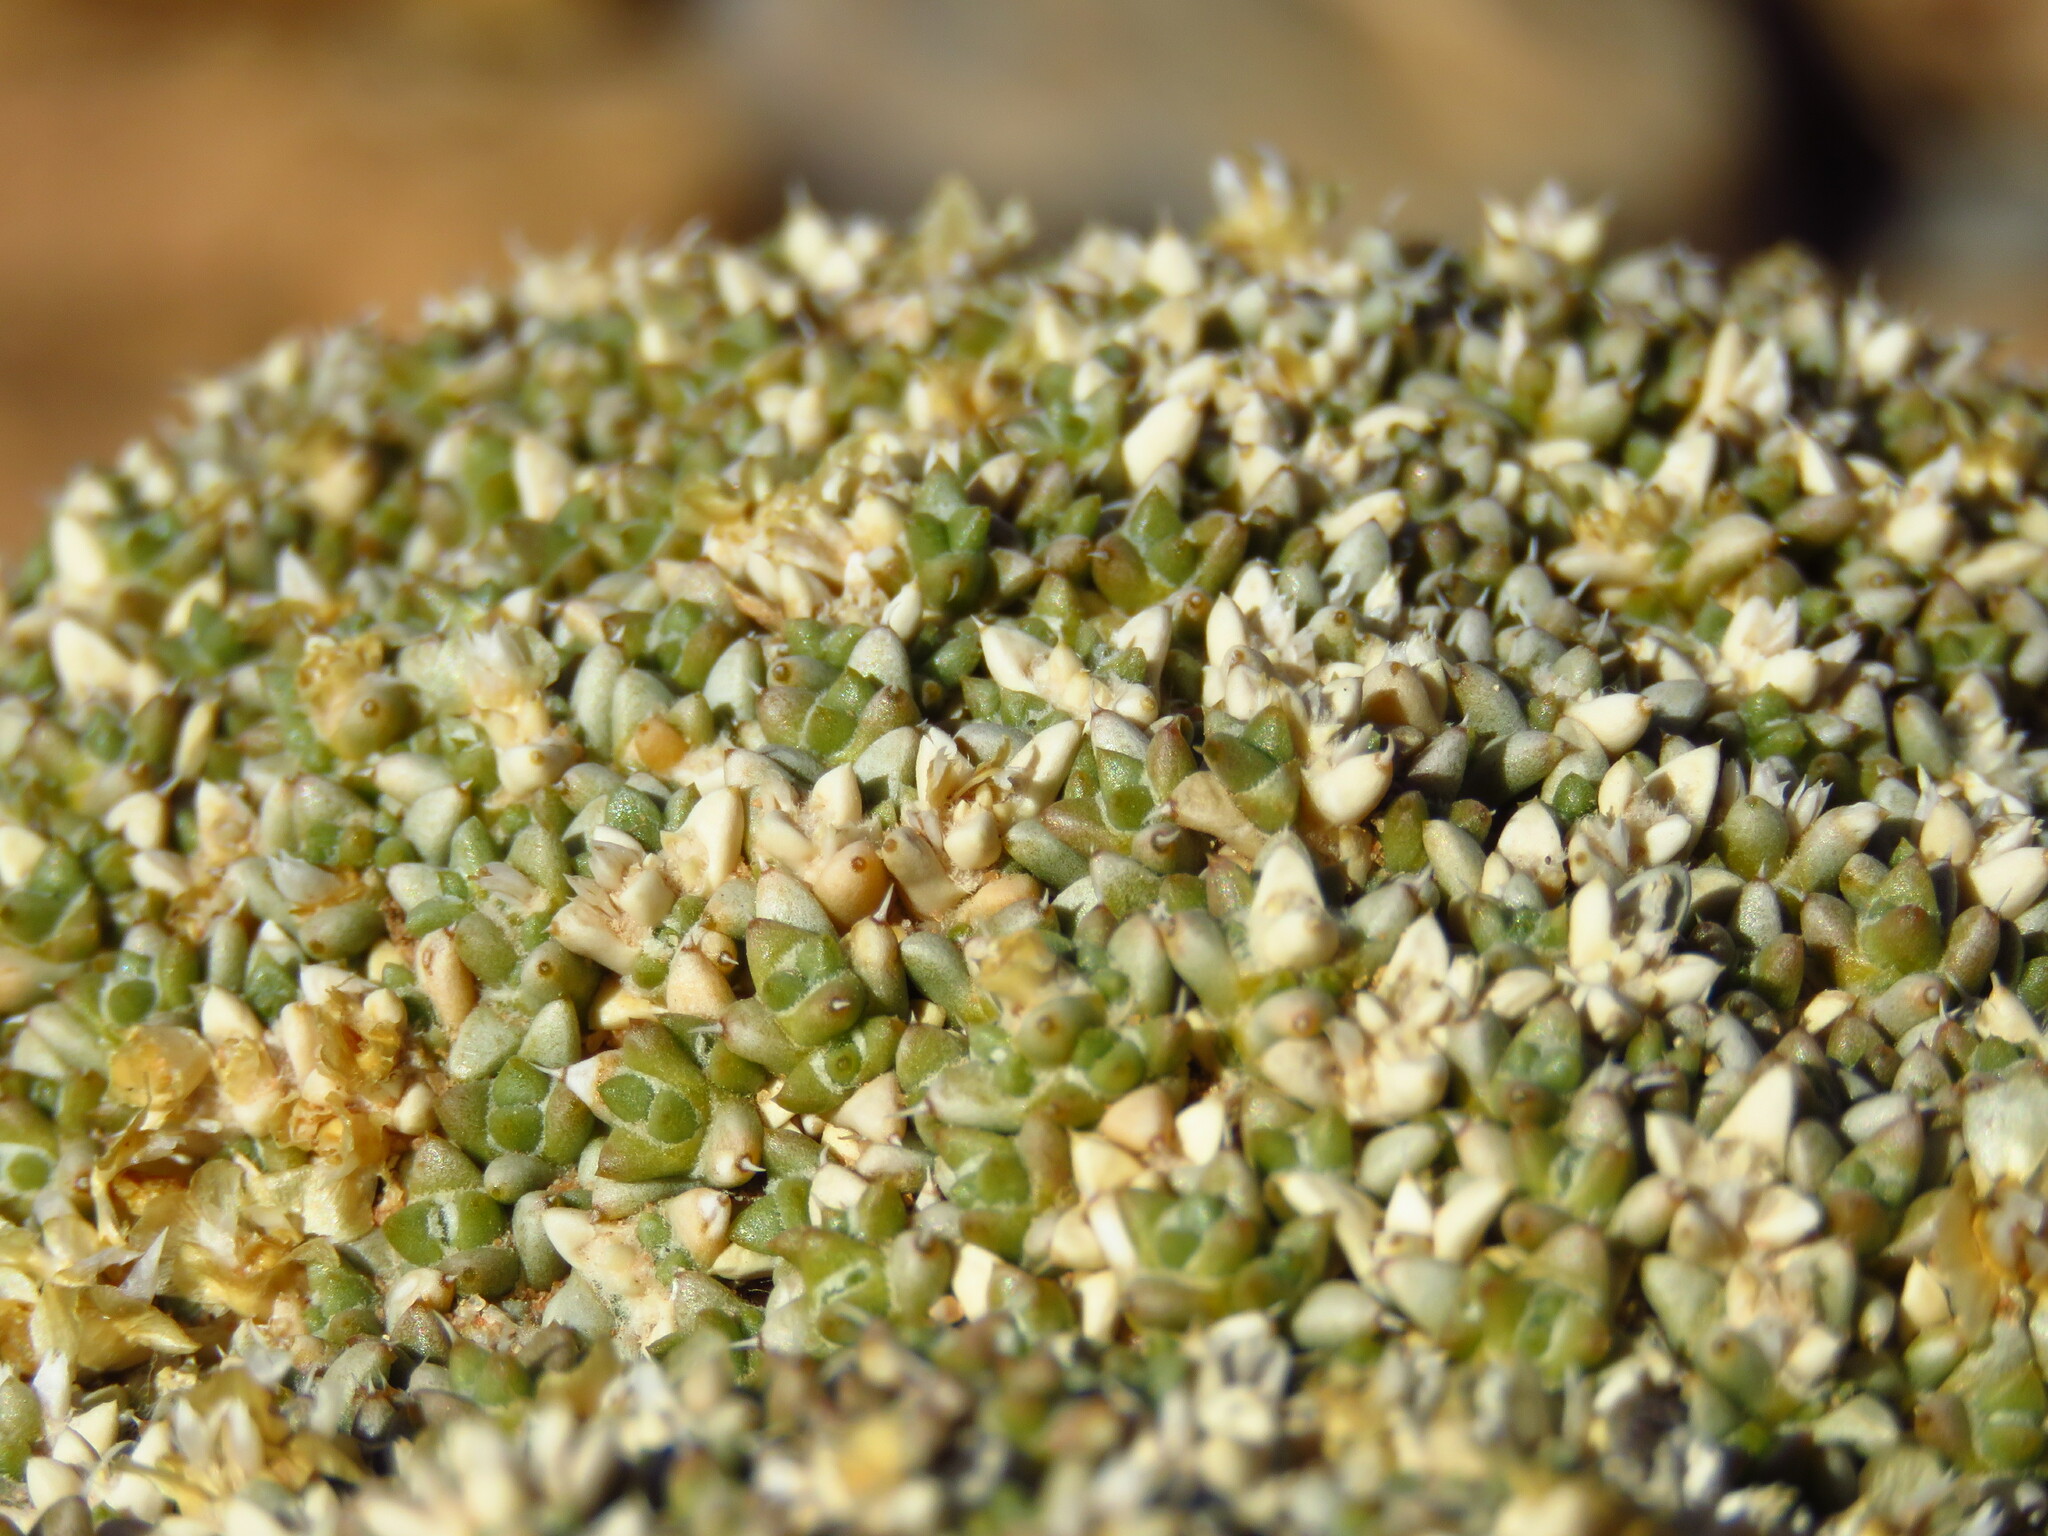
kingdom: Plantae
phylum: Tracheophyta
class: Magnoliopsida
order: Caryophyllales
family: Amaranthaceae
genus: Anabasis
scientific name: Anabasis aretioides
